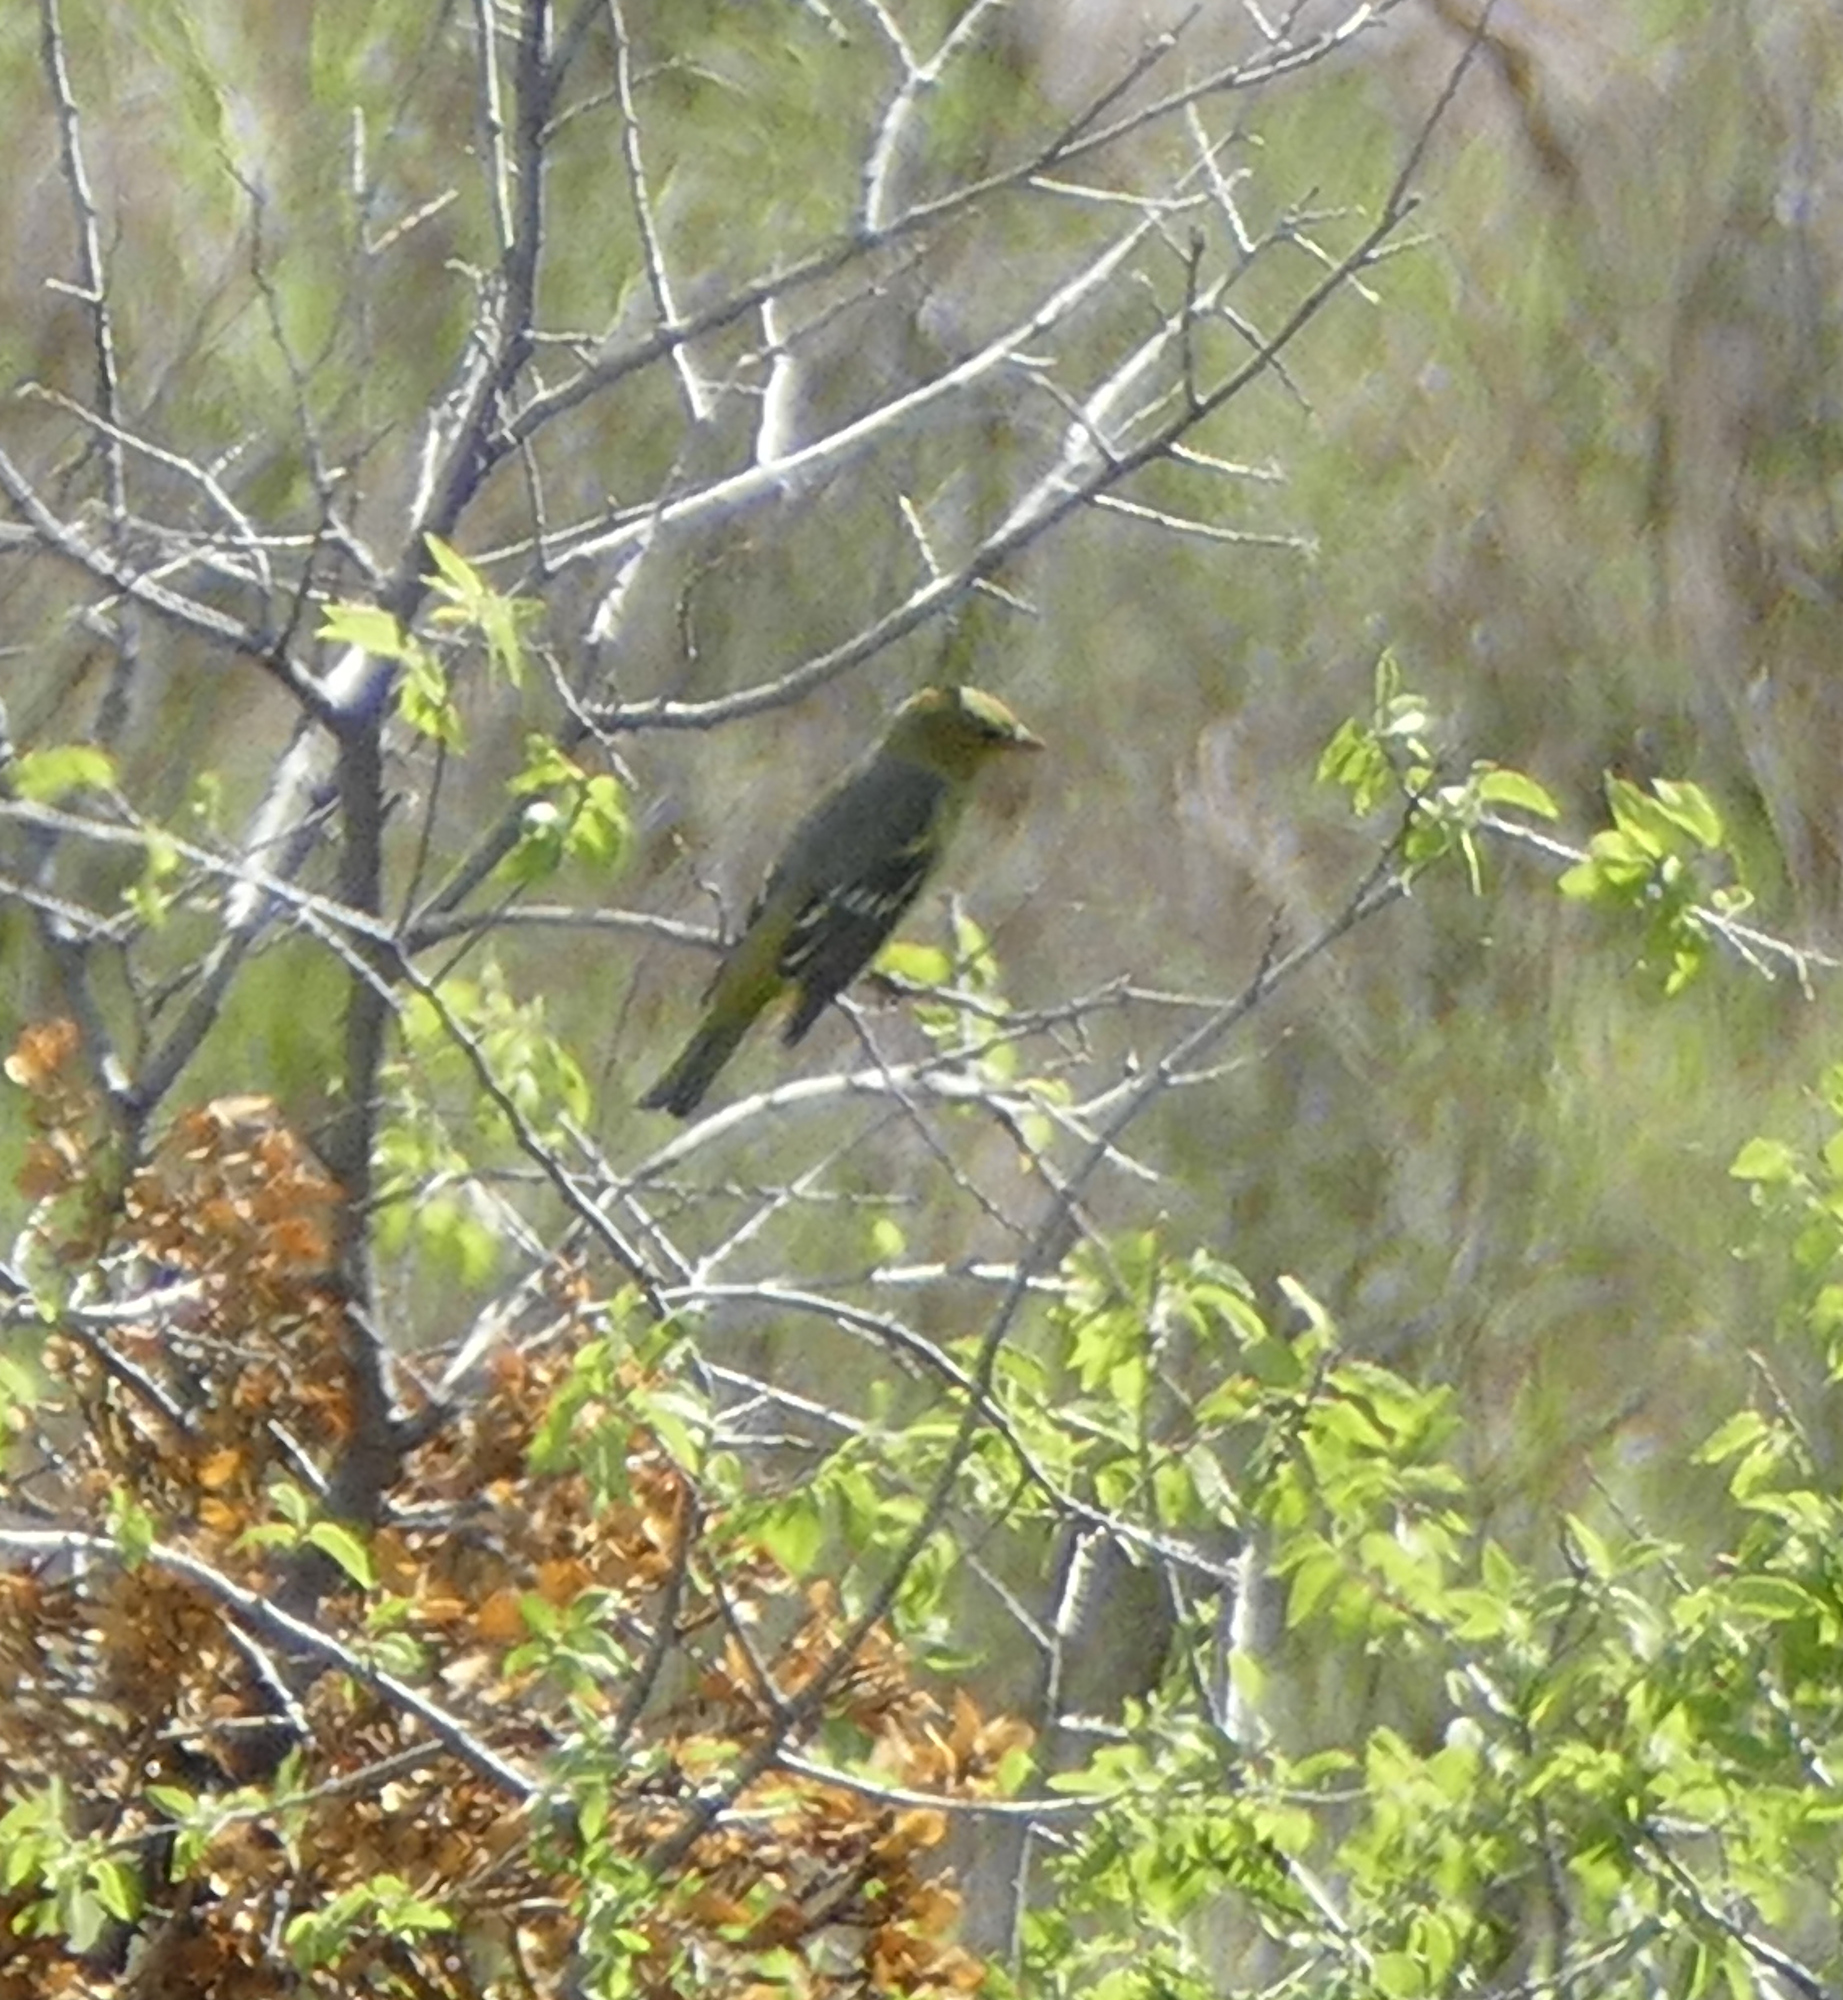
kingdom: Animalia
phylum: Chordata
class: Aves
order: Passeriformes
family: Cardinalidae
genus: Piranga
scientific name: Piranga ludoviciana
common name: Western tanager
